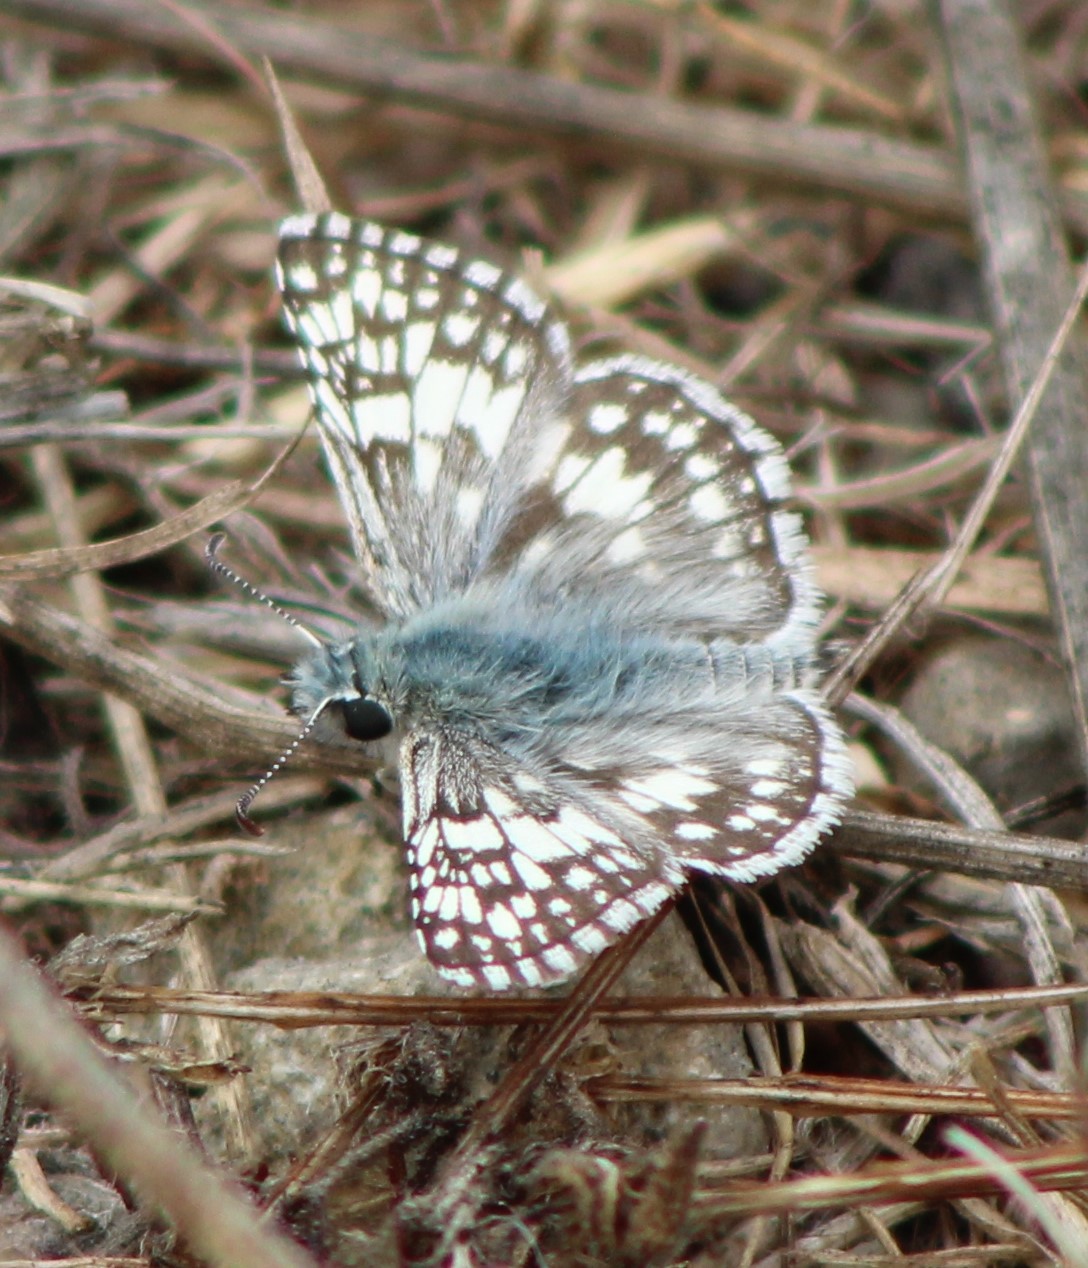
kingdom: Animalia
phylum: Arthropoda
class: Insecta
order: Lepidoptera
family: Hesperiidae
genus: Burnsius
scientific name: Burnsius communis
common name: Common checkered-skipper
